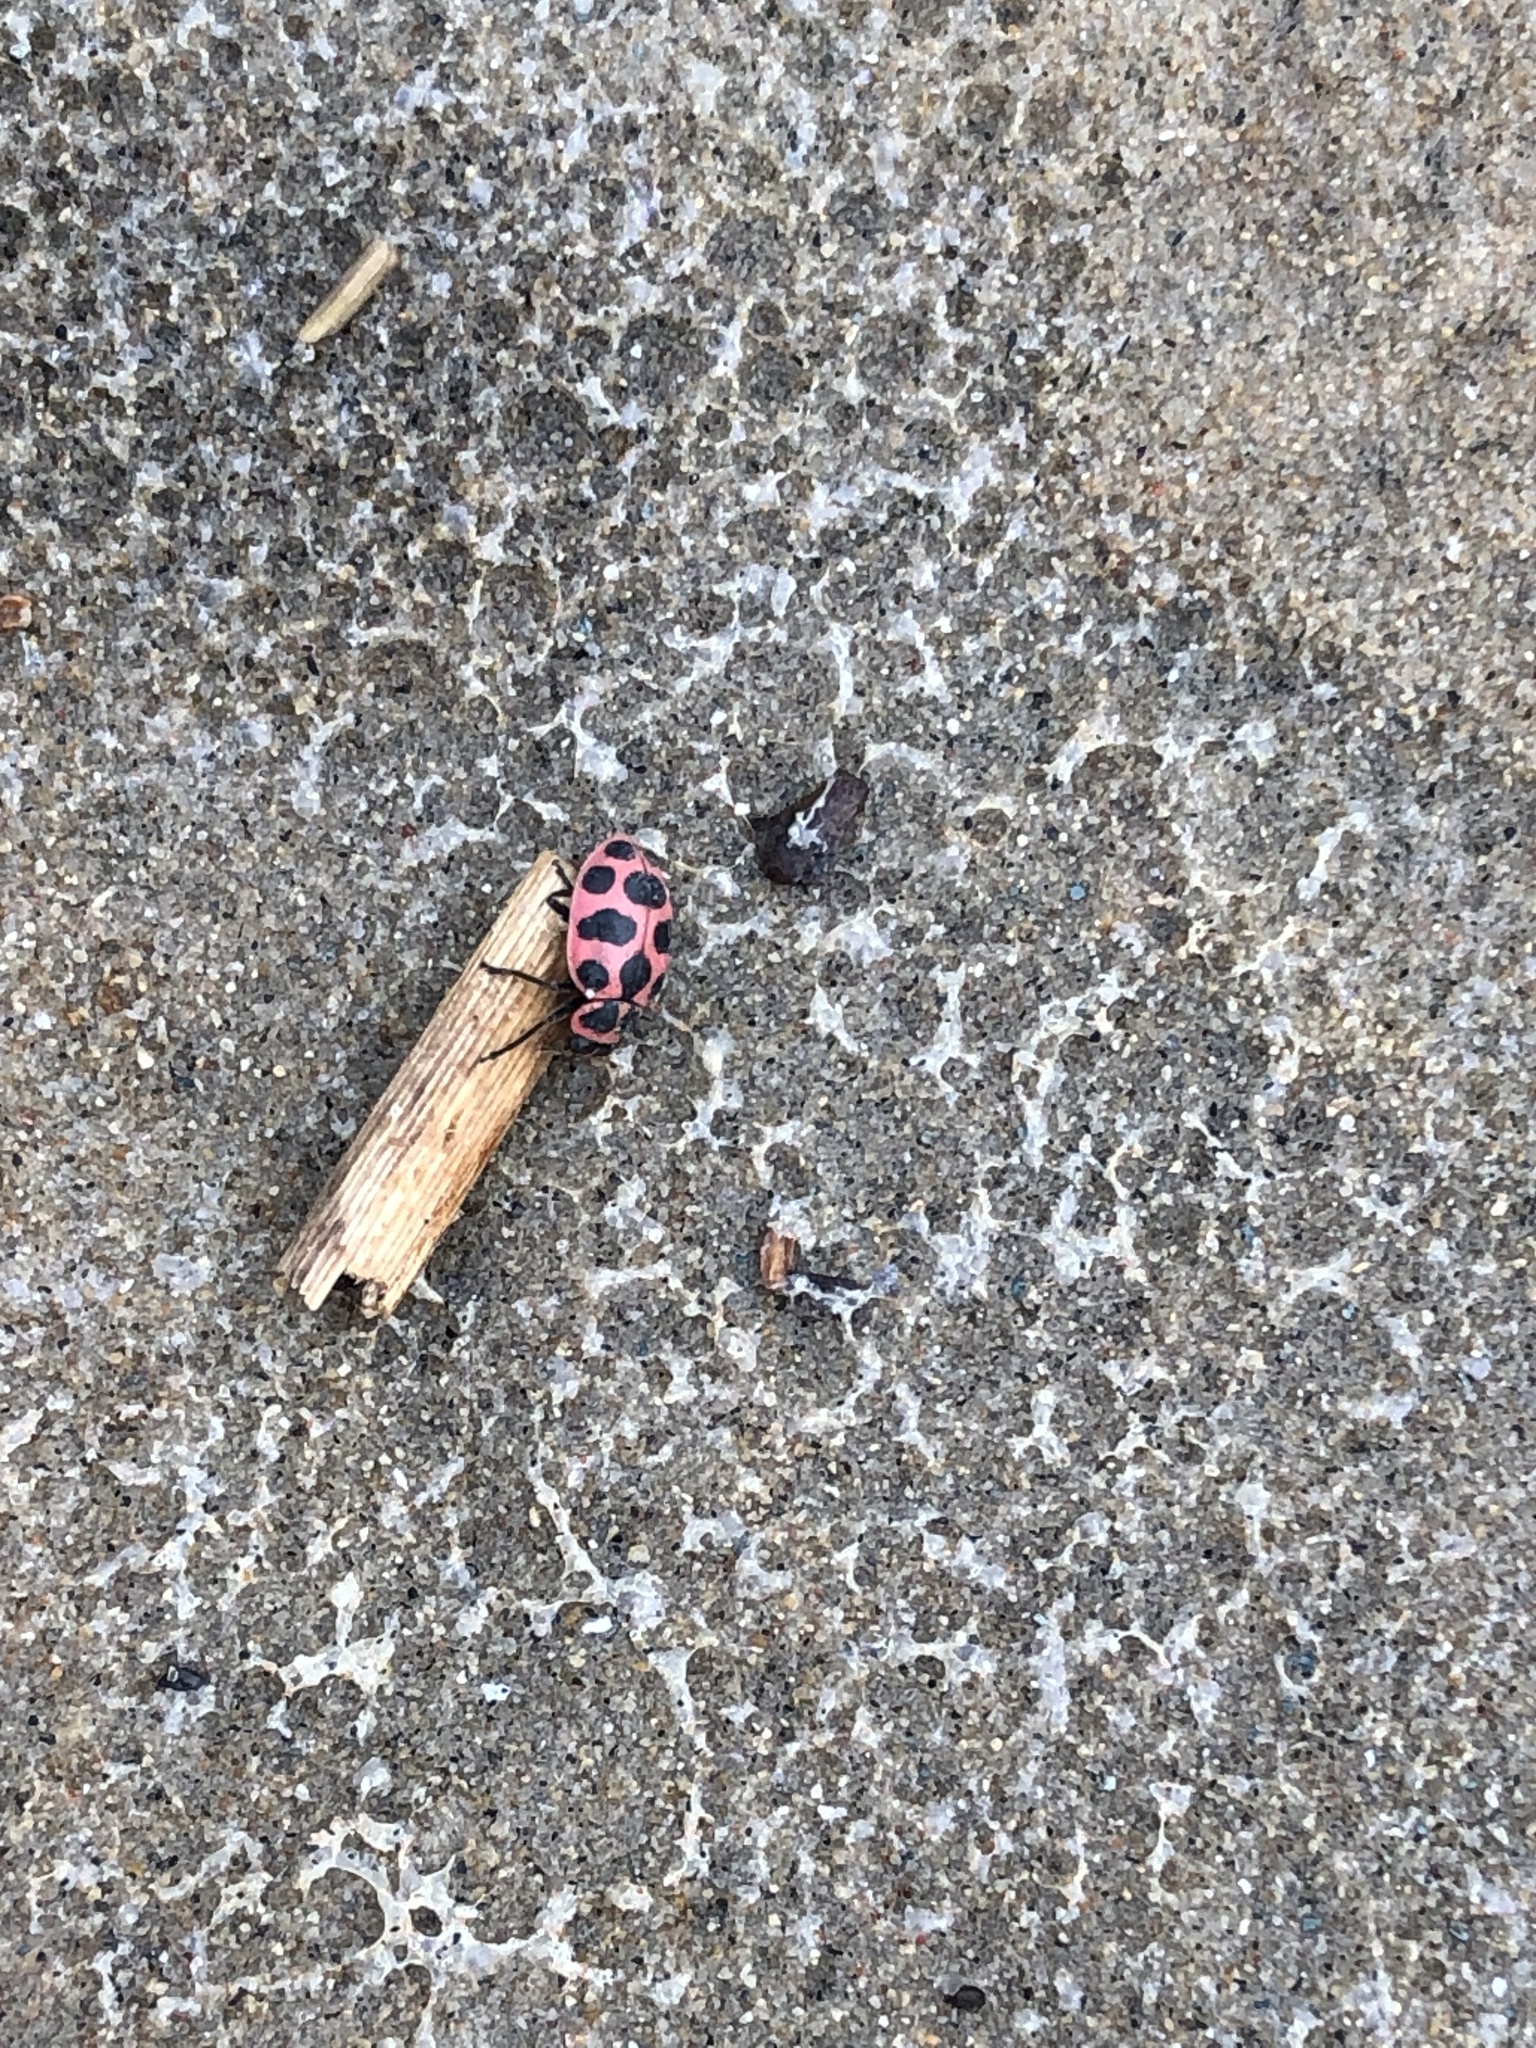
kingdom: Animalia
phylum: Arthropoda
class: Insecta
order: Coleoptera
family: Coccinellidae
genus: Coleomegilla
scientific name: Coleomegilla maculata
